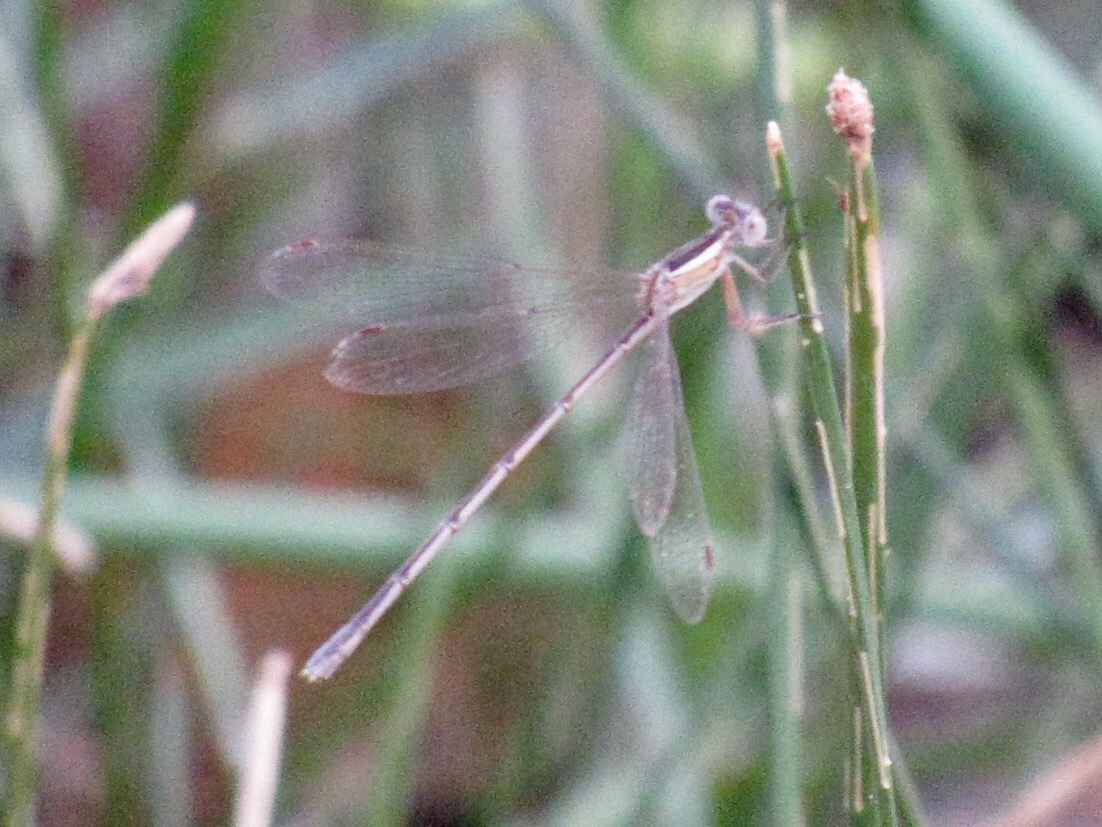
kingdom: Animalia
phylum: Arthropoda
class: Insecta
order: Odonata
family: Lestidae
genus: Lestes
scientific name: Lestes alacer
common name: Plateau spreadwing
